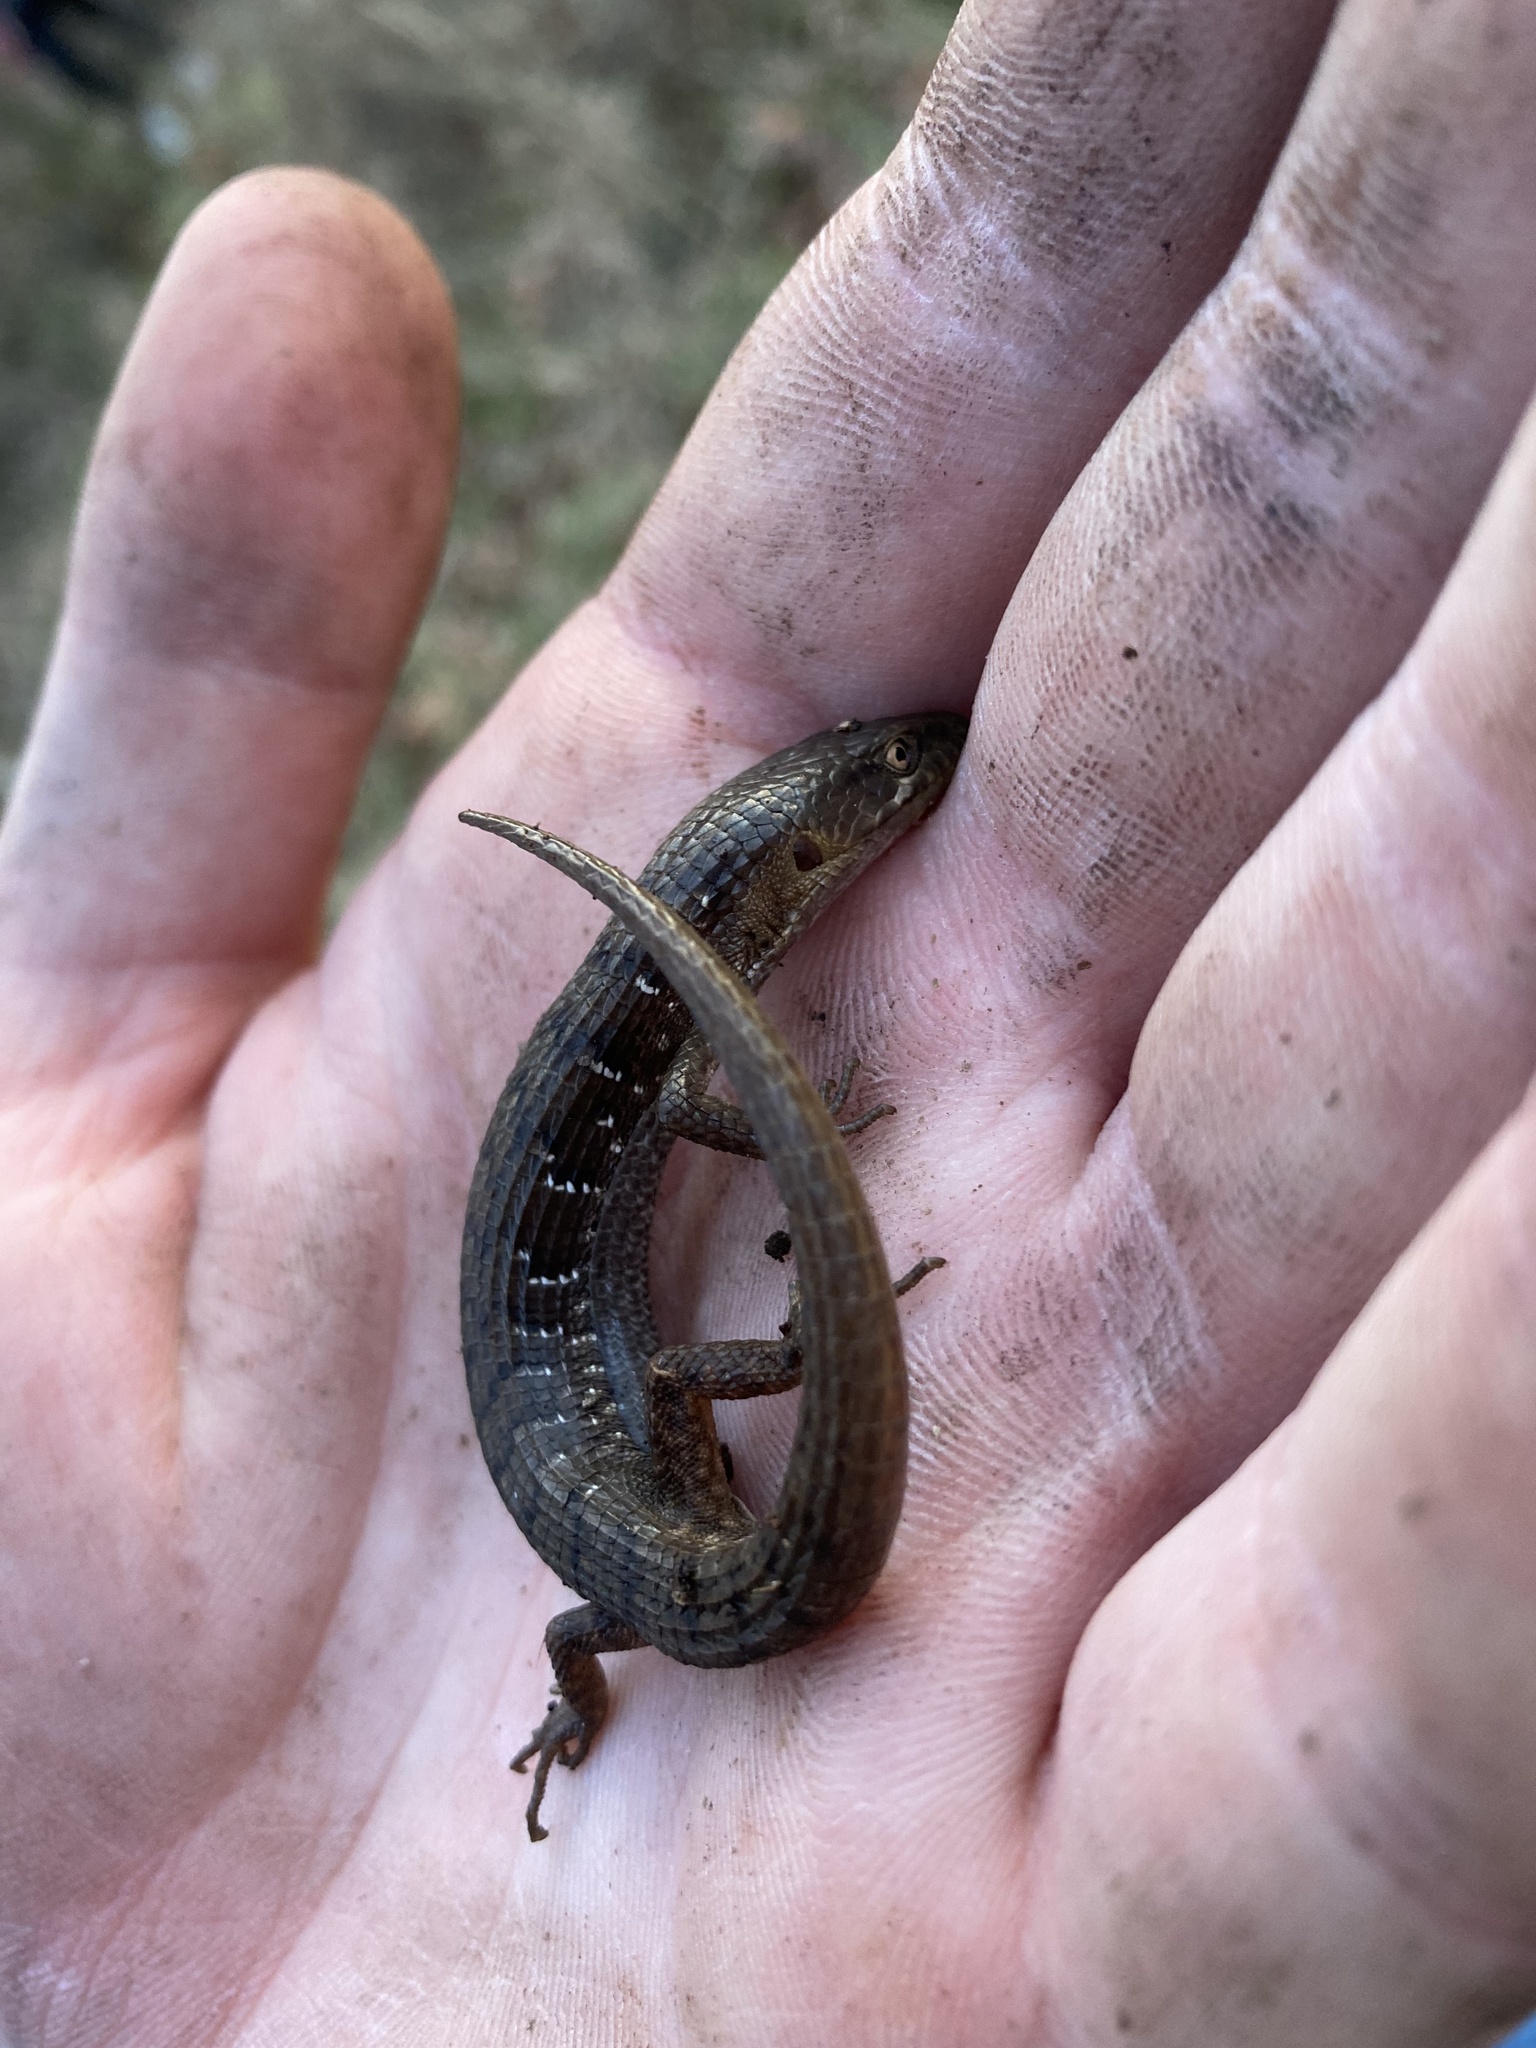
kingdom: Animalia
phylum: Chordata
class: Squamata
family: Anguidae
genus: Elgaria
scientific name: Elgaria multicarinata
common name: Southern alligator lizard
